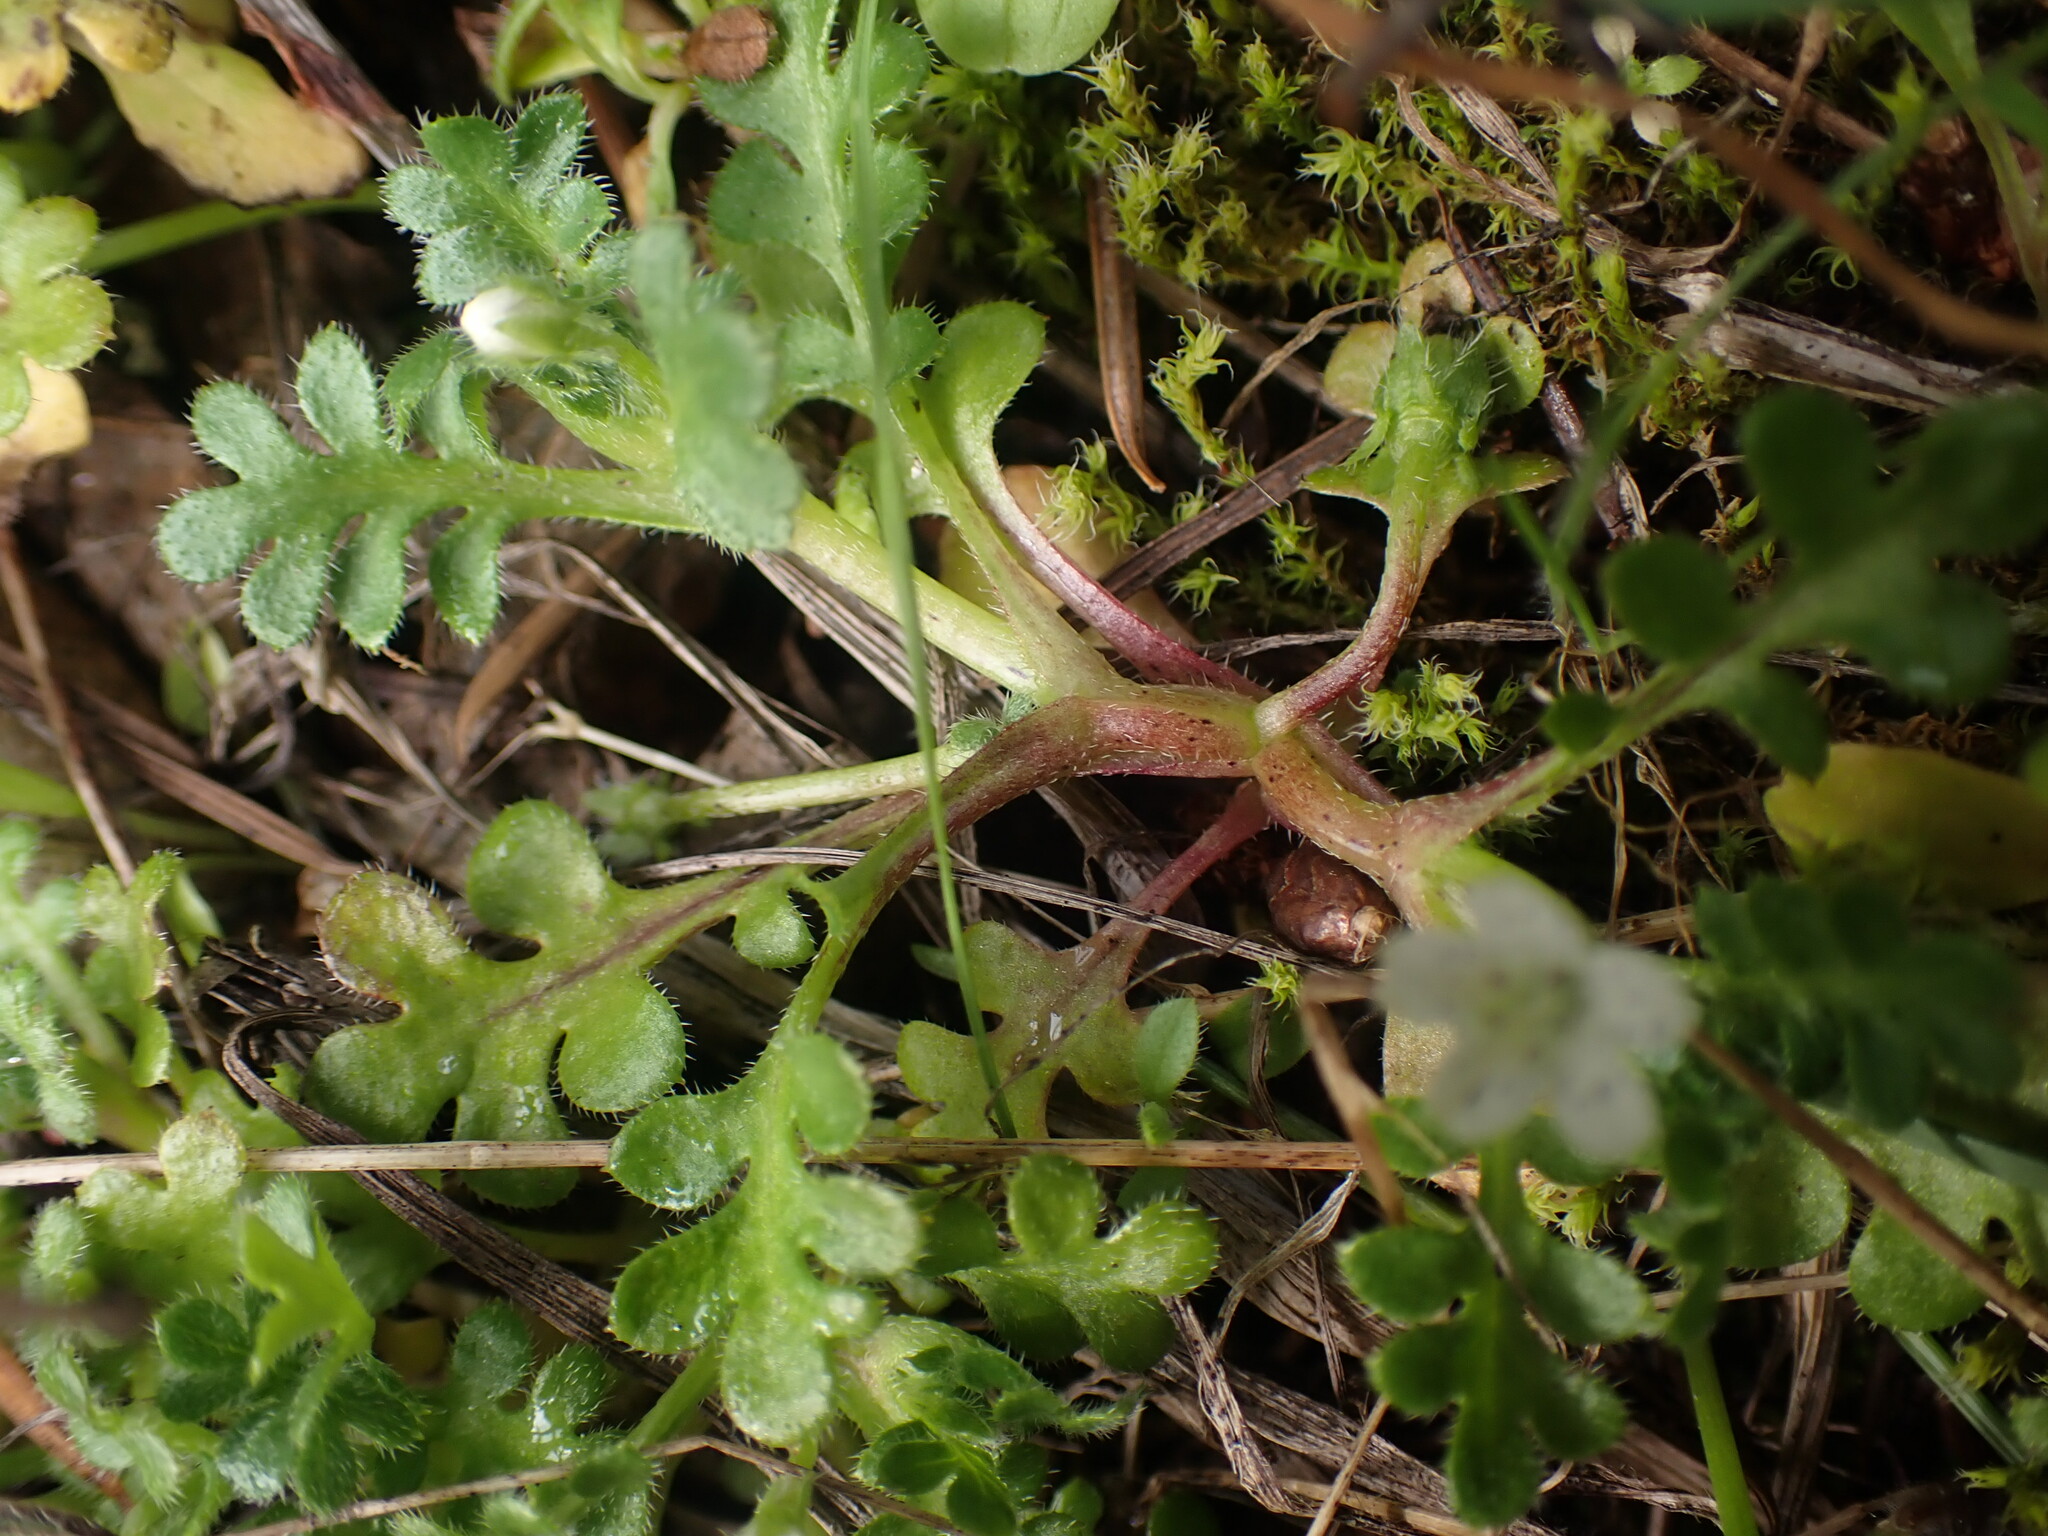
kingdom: Plantae
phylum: Tracheophyta
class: Magnoliopsida
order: Boraginales
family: Hydrophyllaceae
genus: Nemophila
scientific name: Nemophila pedunculata
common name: Little-foot baby-blue-eyes
